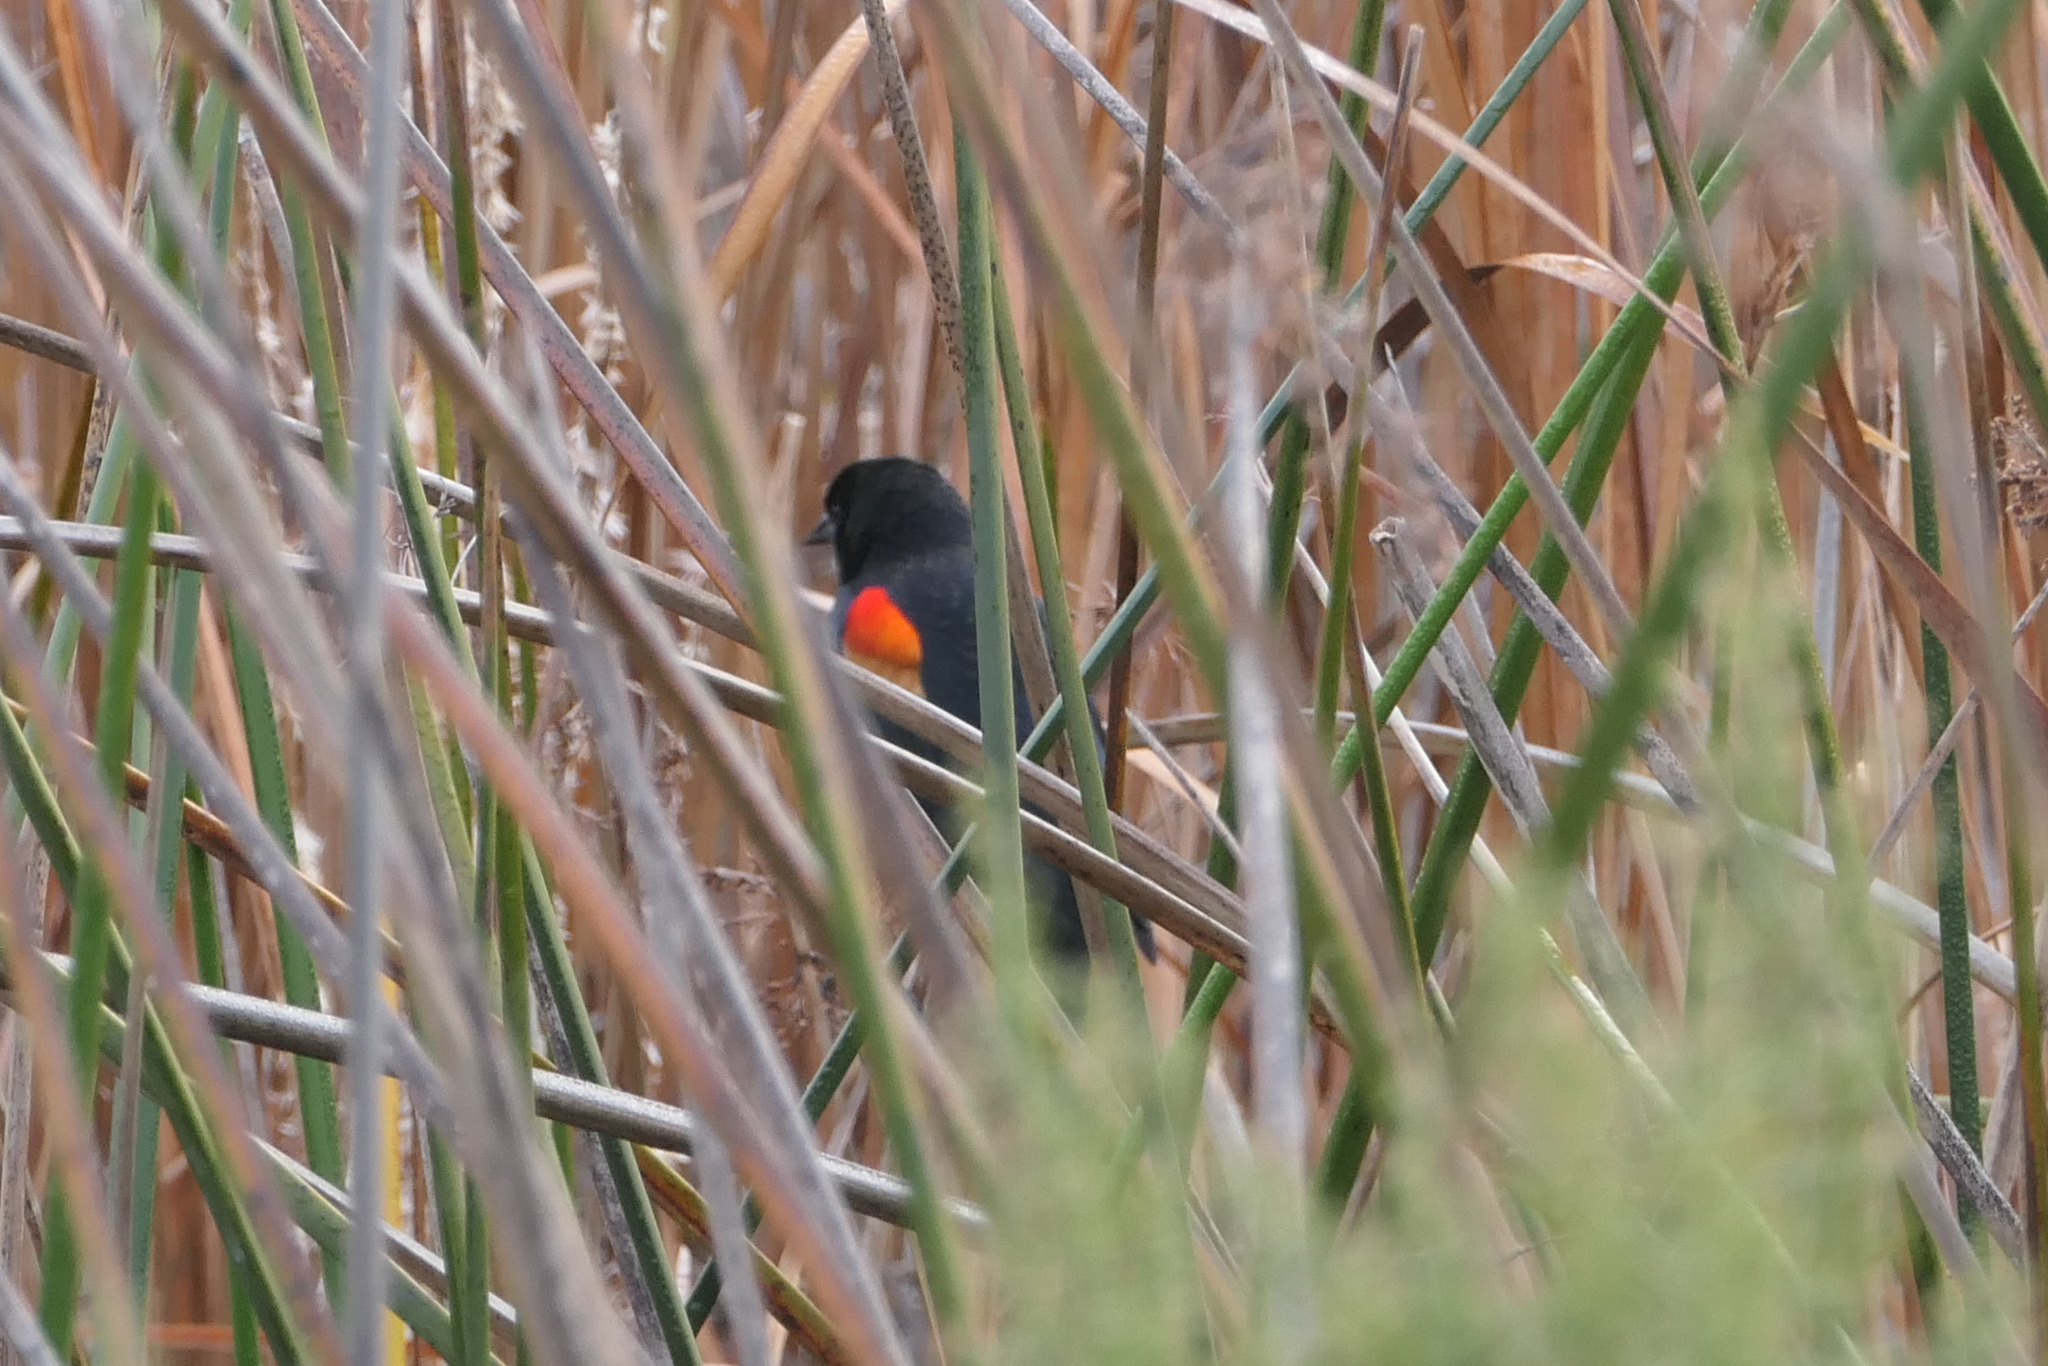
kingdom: Animalia
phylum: Chordata
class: Aves
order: Passeriformes
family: Icteridae
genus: Agelaius
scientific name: Agelaius phoeniceus
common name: Red-winged blackbird
